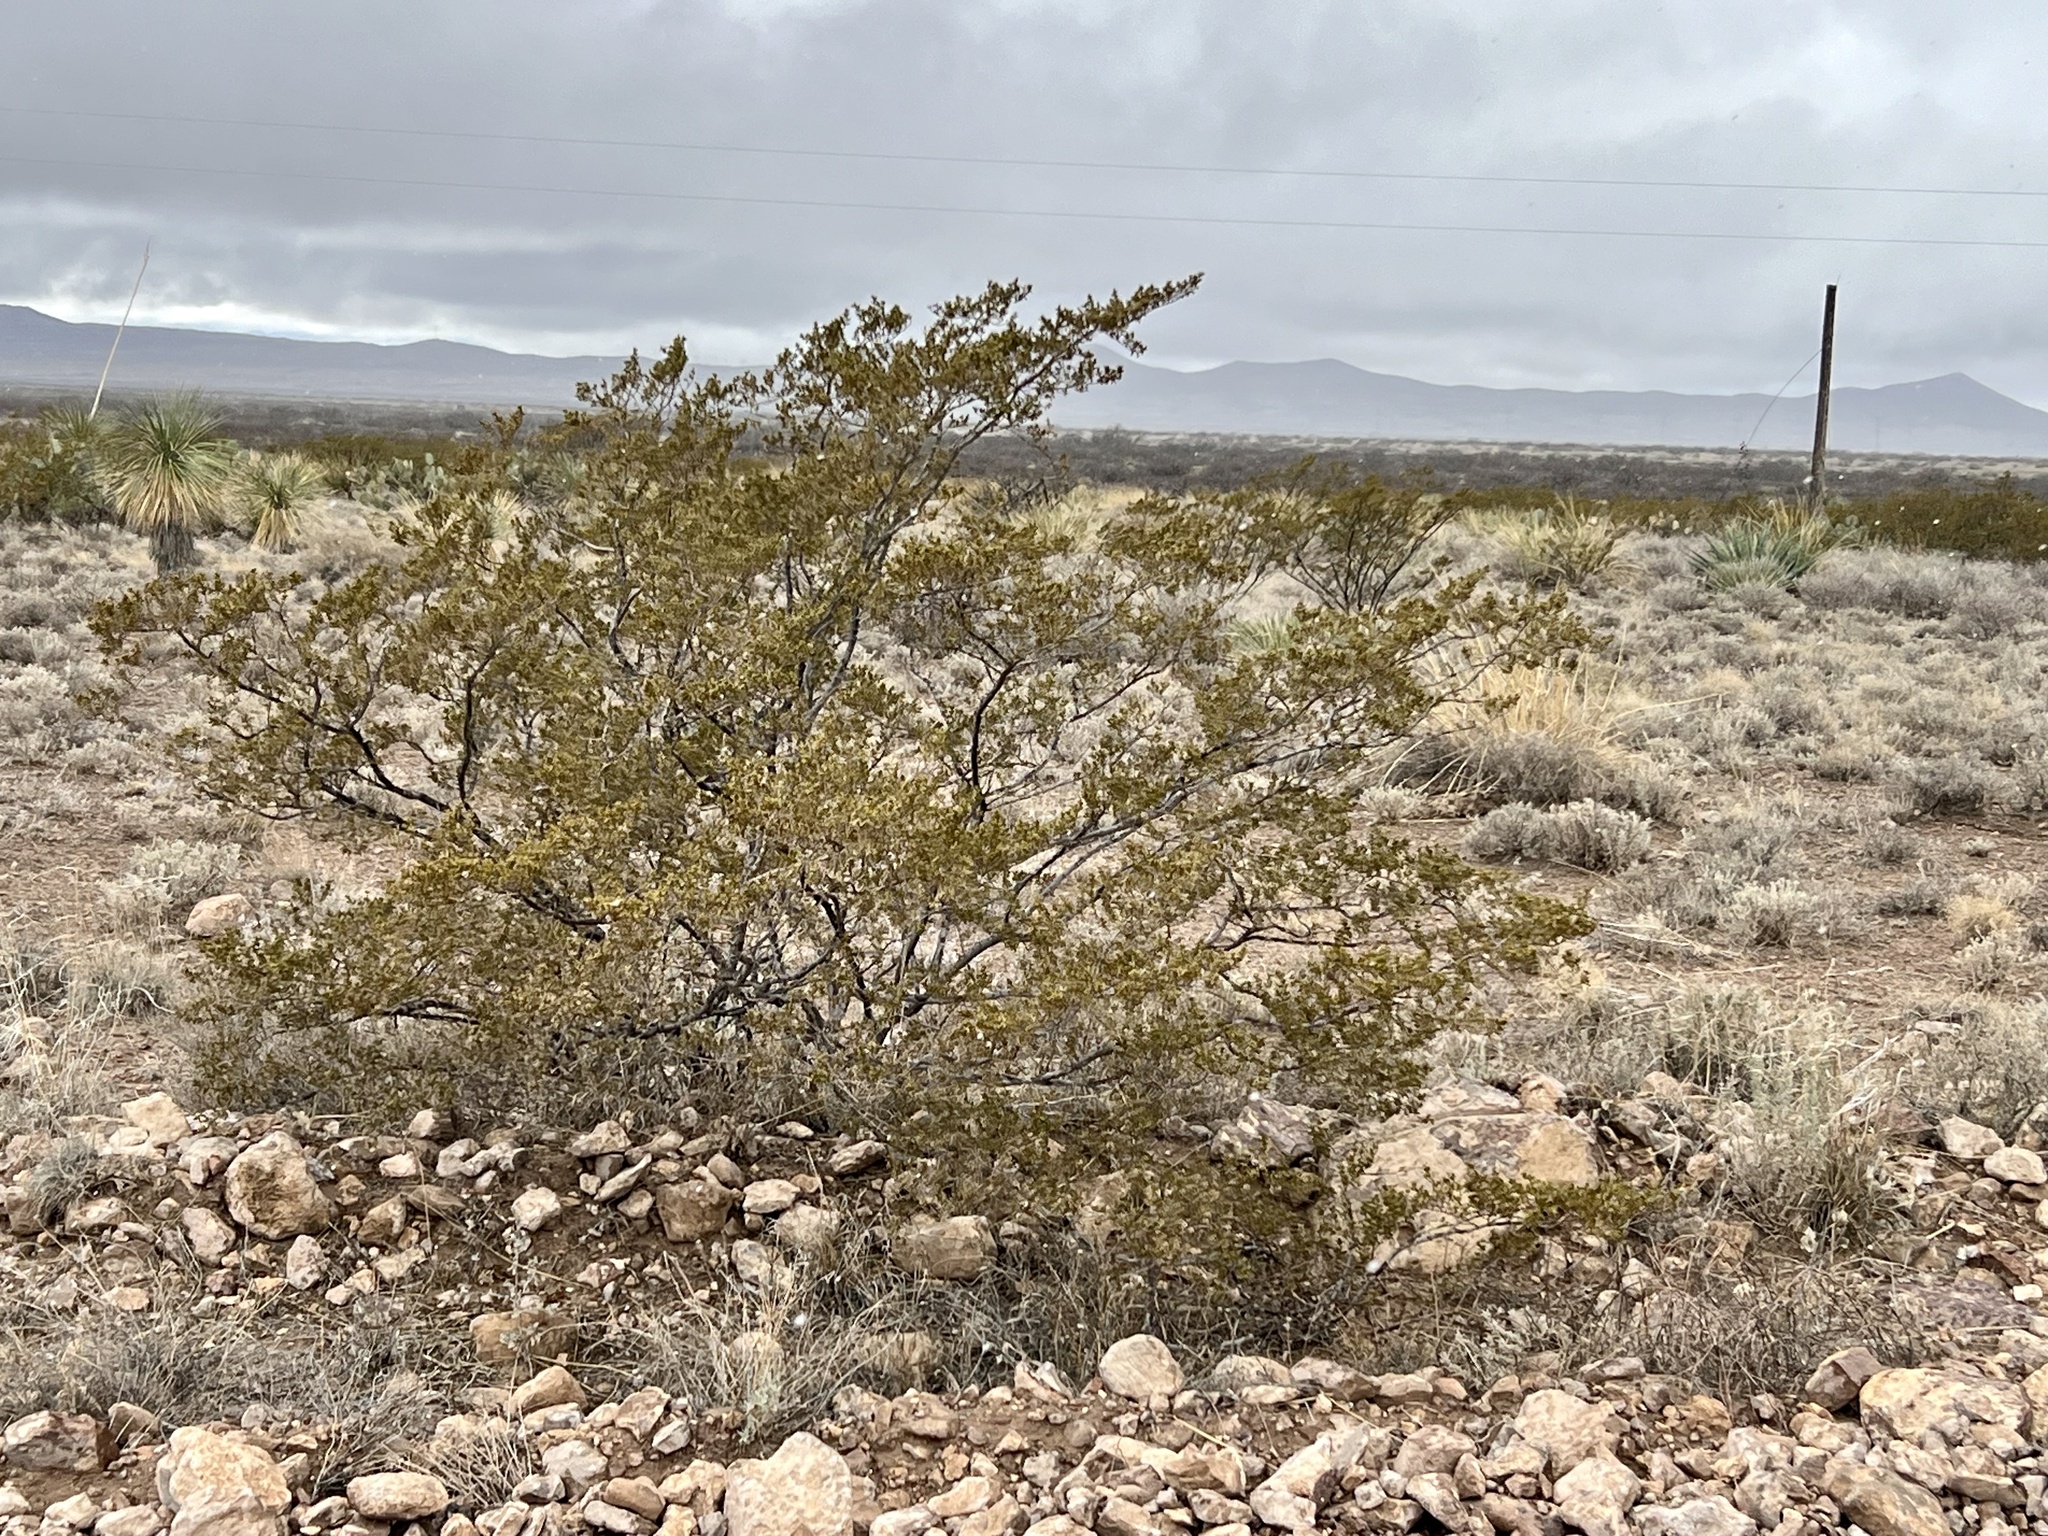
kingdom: Plantae
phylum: Tracheophyta
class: Magnoliopsida
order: Zygophyllales
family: Zygophyllaceae
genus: Larrea
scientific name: Larrea tridentata
